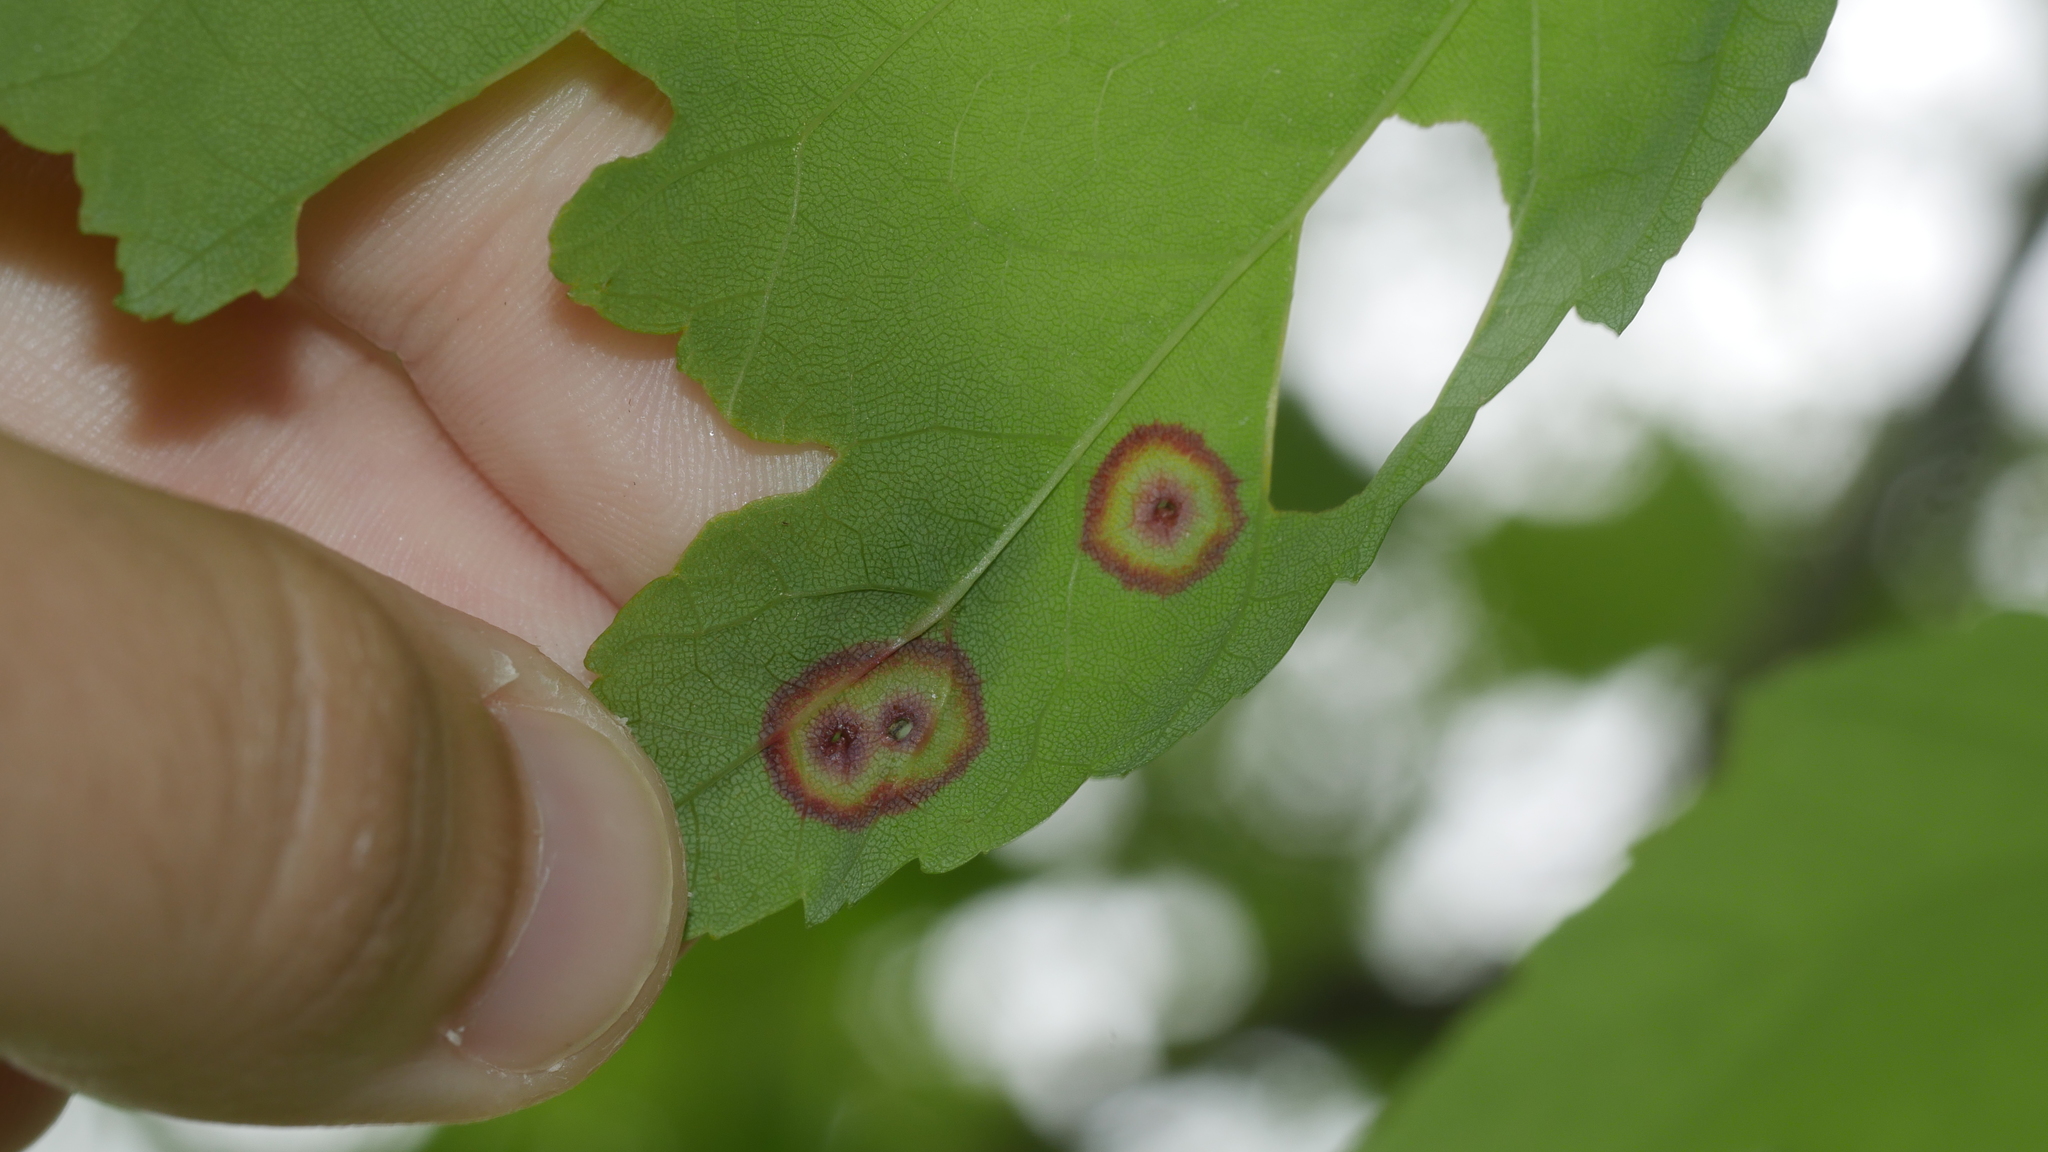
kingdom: Animalia
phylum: Arthropoda
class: Insecta
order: Diptera
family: Cecidomyiidae
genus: Acericecis
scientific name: Acericecis ocellaris
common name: Ocellate gall midge
